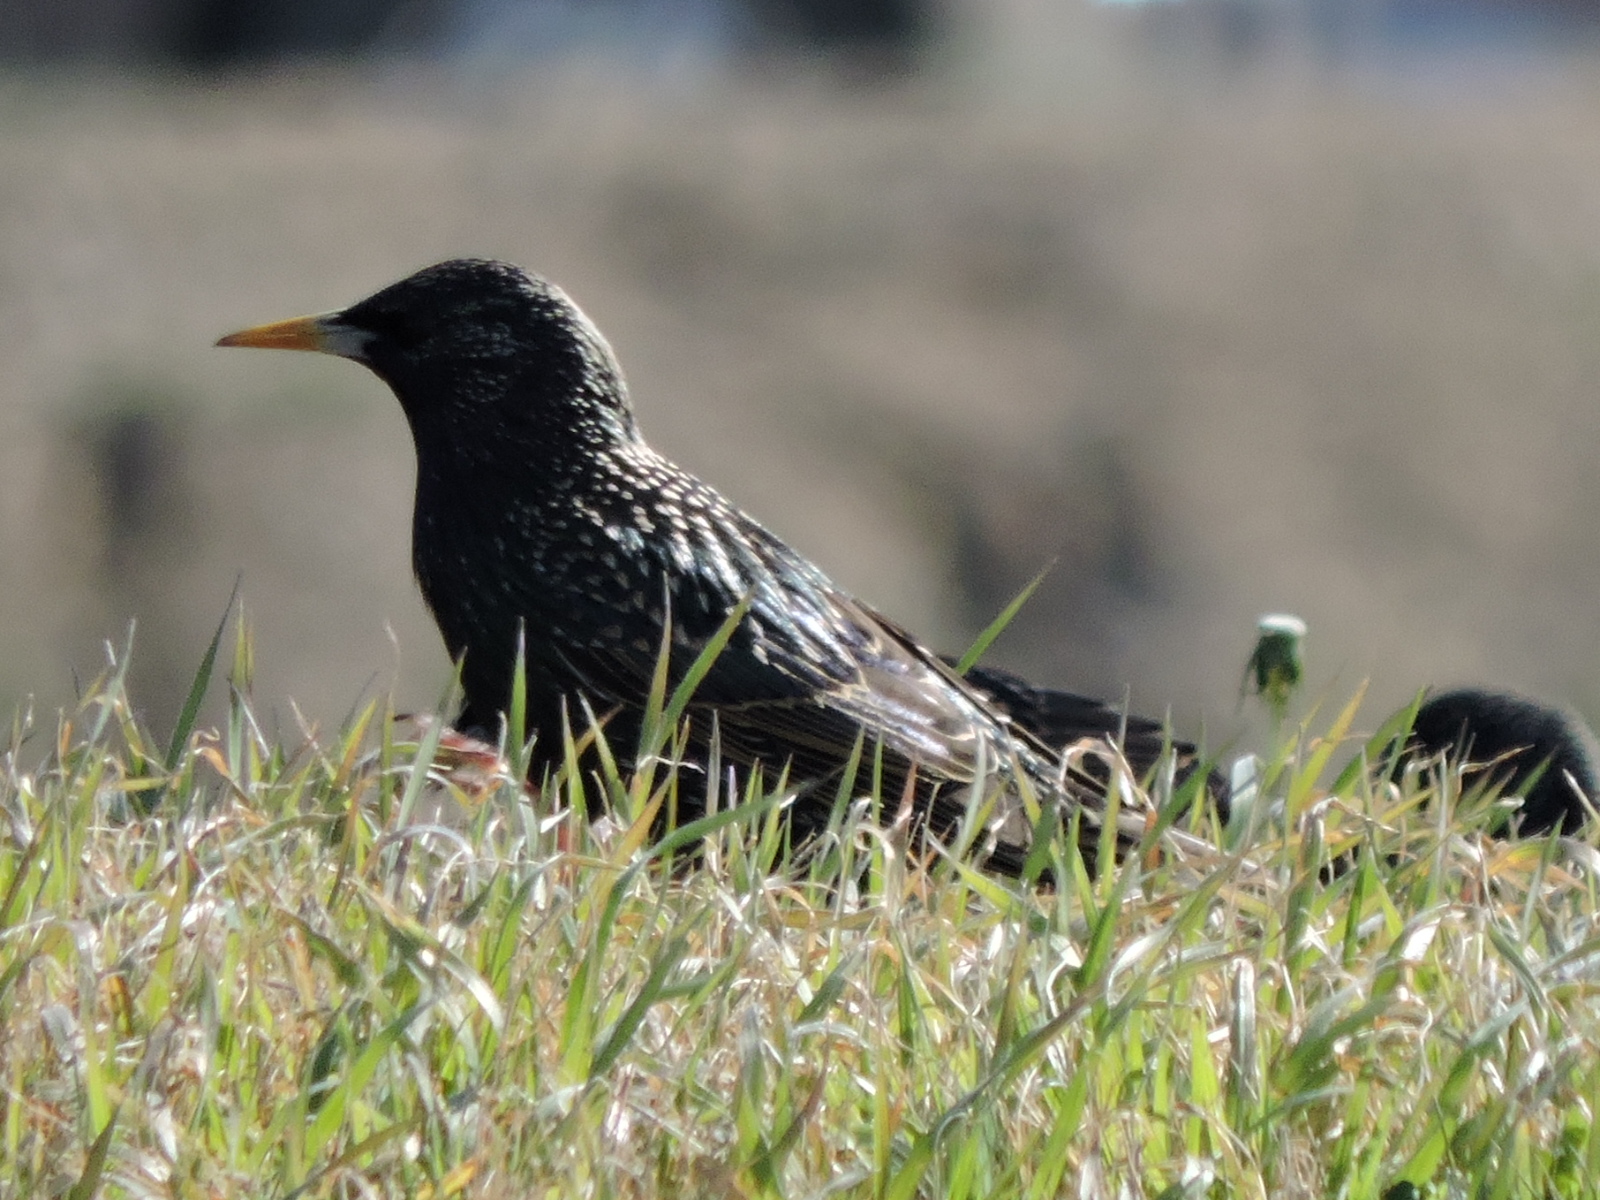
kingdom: Animalia
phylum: Chordata
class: Aves
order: Passeriformes
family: Sturnidae
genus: Sturnus
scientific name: Sturnus vulgaris
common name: Common starling
